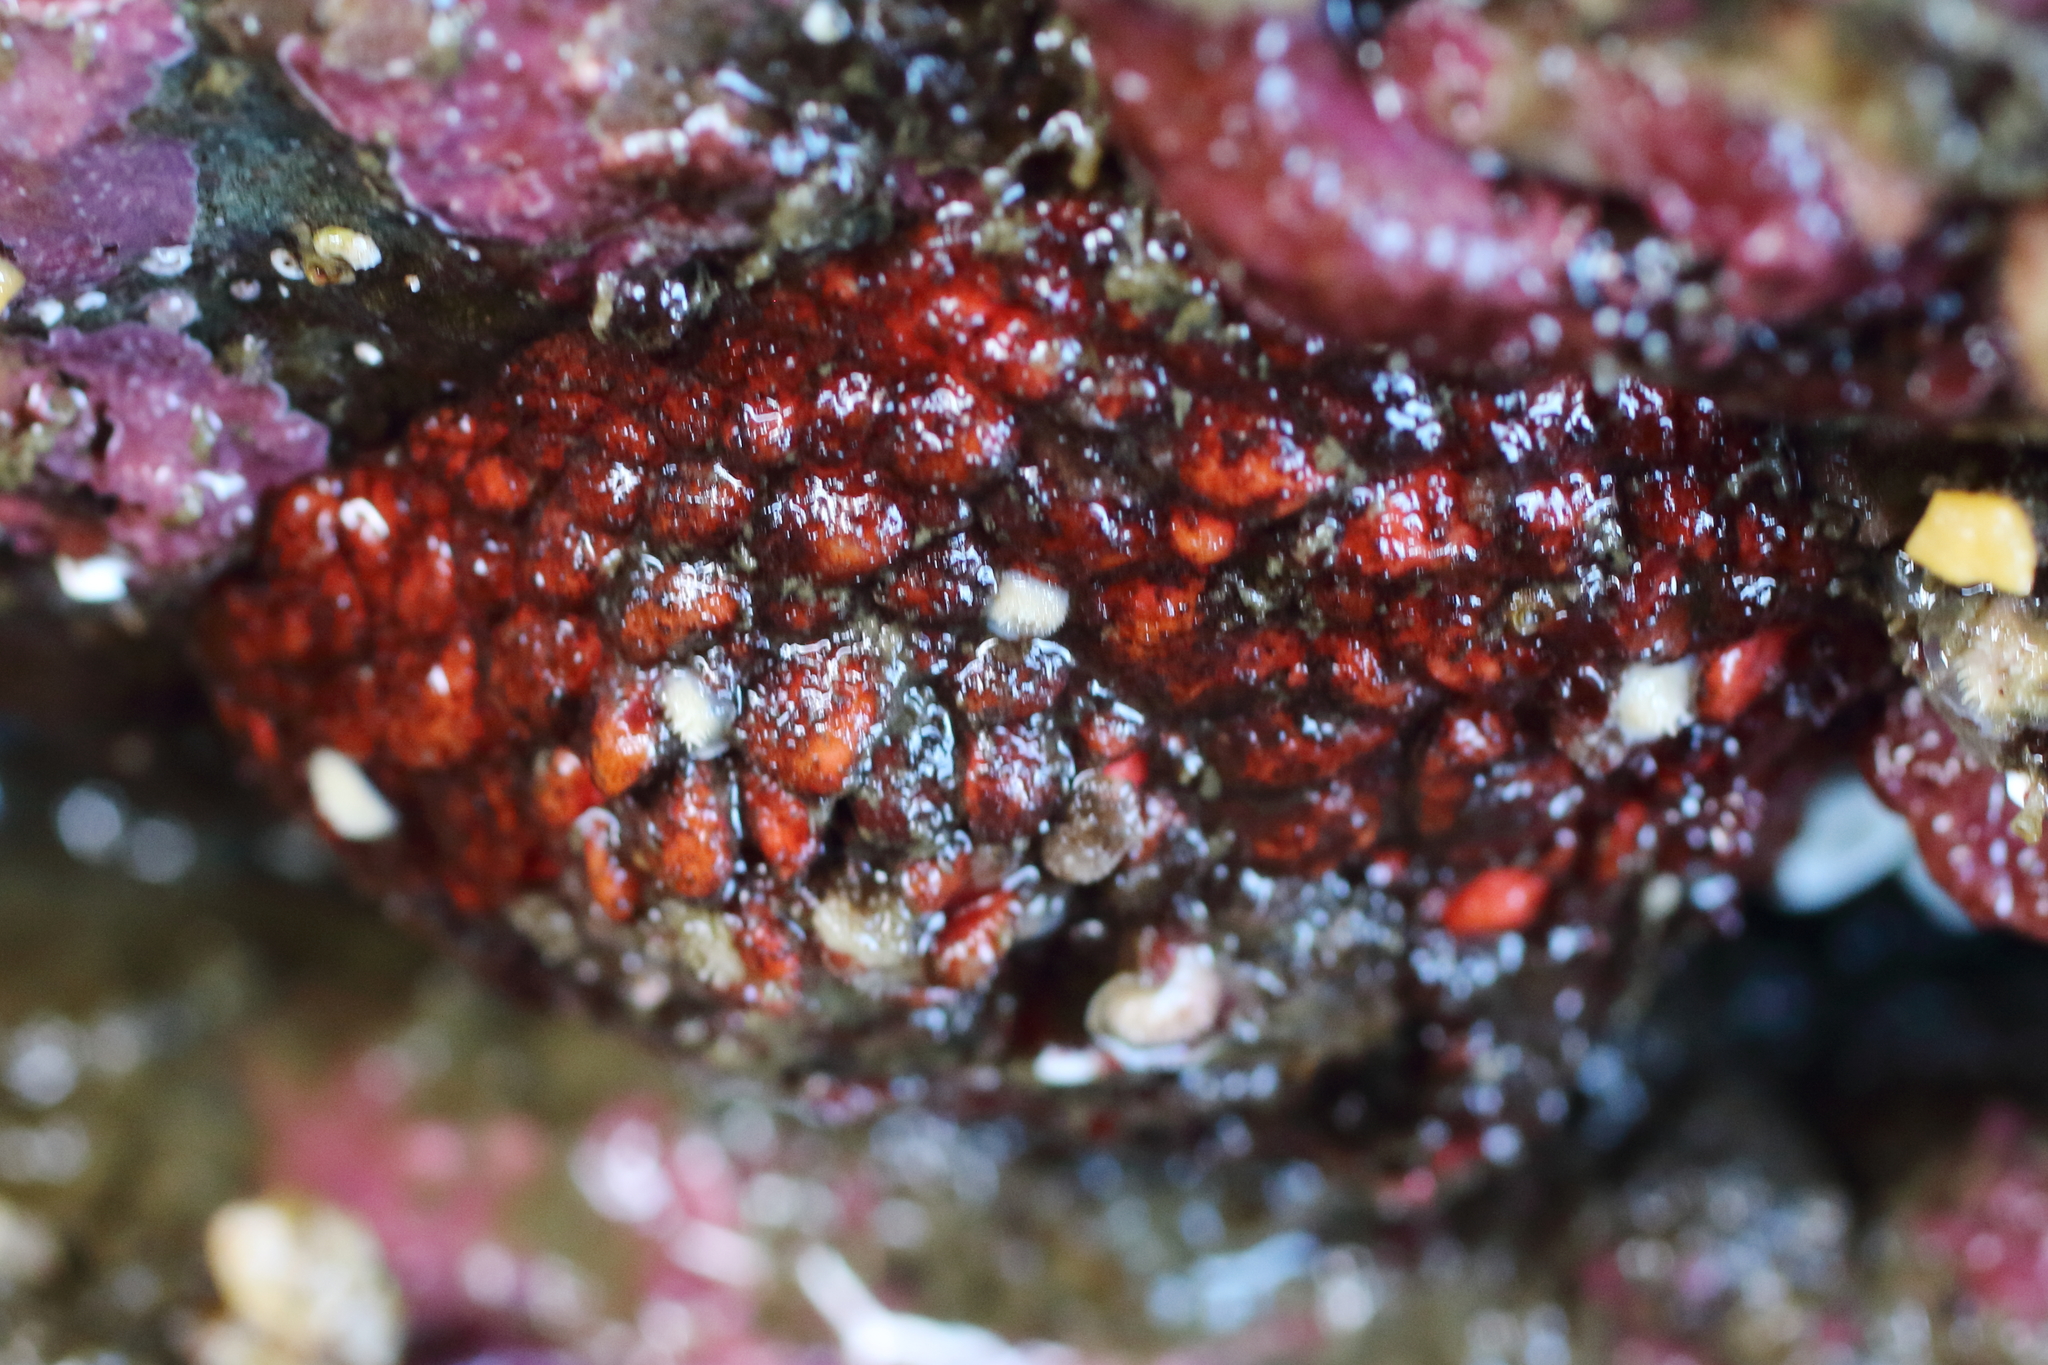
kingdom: Animalia
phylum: Echinodermata
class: Holothuroidea
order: Dendrochirotida
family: Psolidae
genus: Psolus
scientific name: Psolus chitonoides
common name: Creeping pedal sea cucumber
